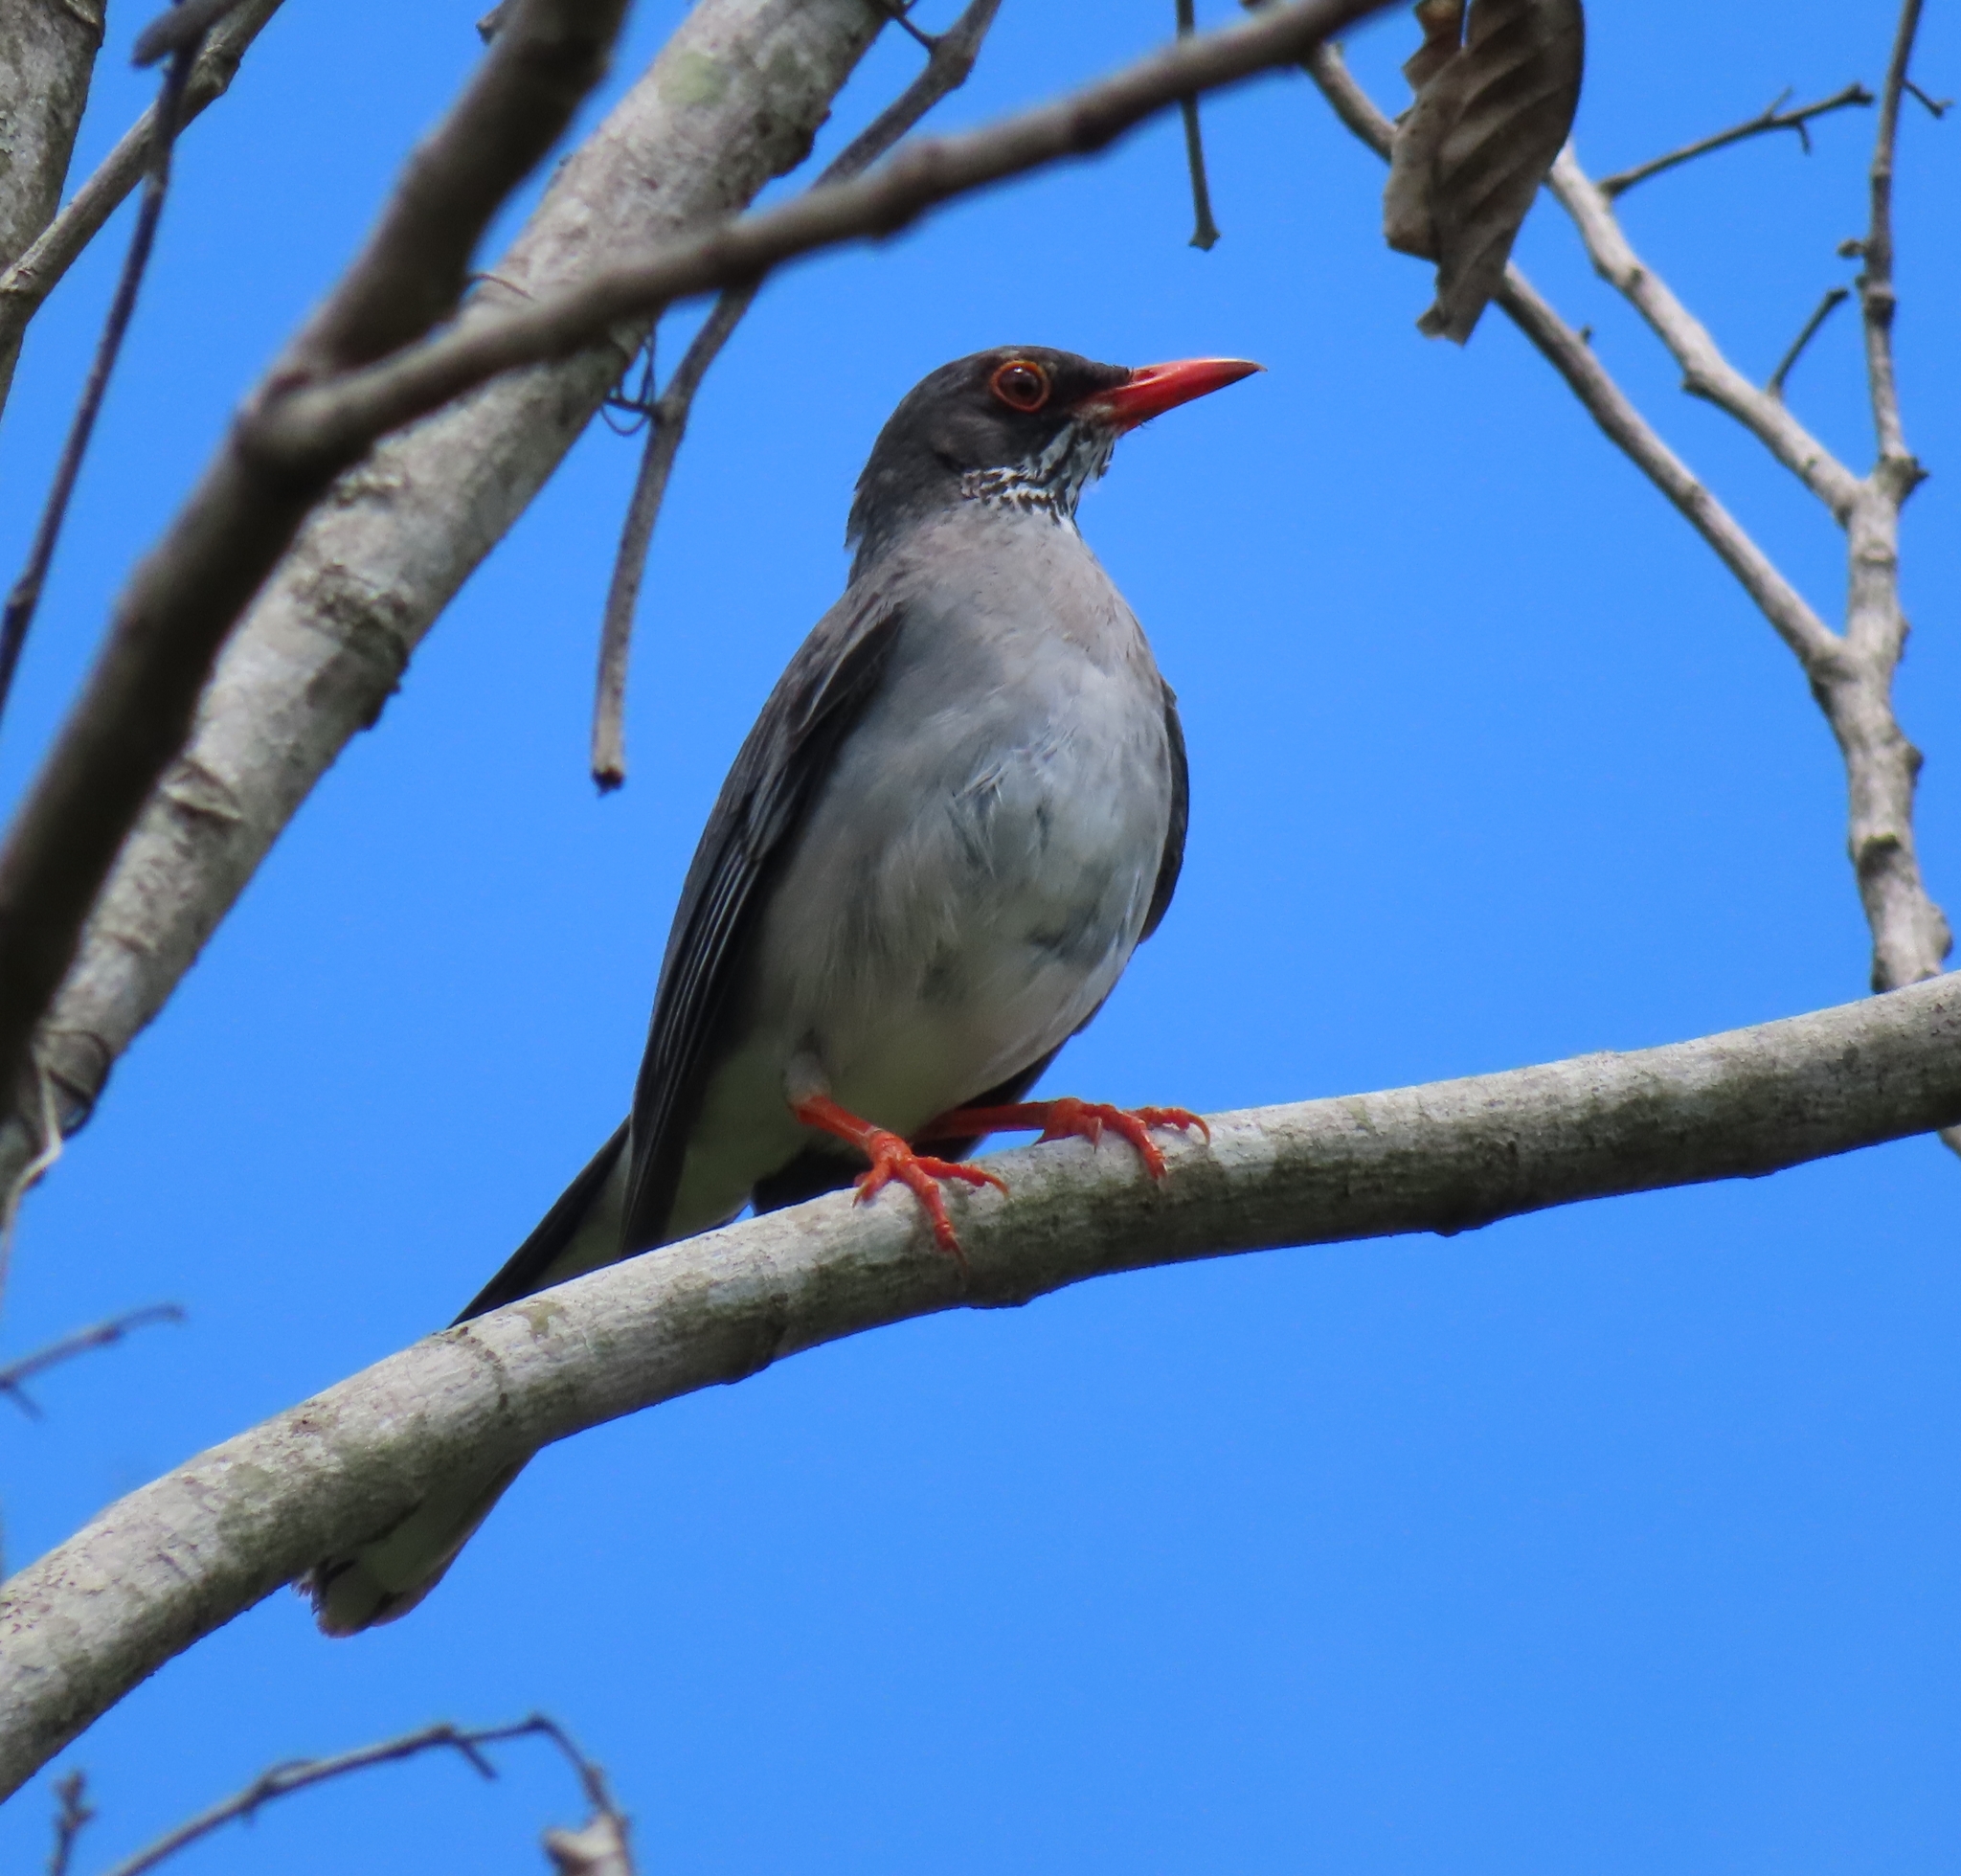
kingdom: Animalia
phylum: Chordata
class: Aves
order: Passeriformes
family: Turdidae
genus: Turdus
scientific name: Turdus plumbeus
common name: Red-legged thrush
